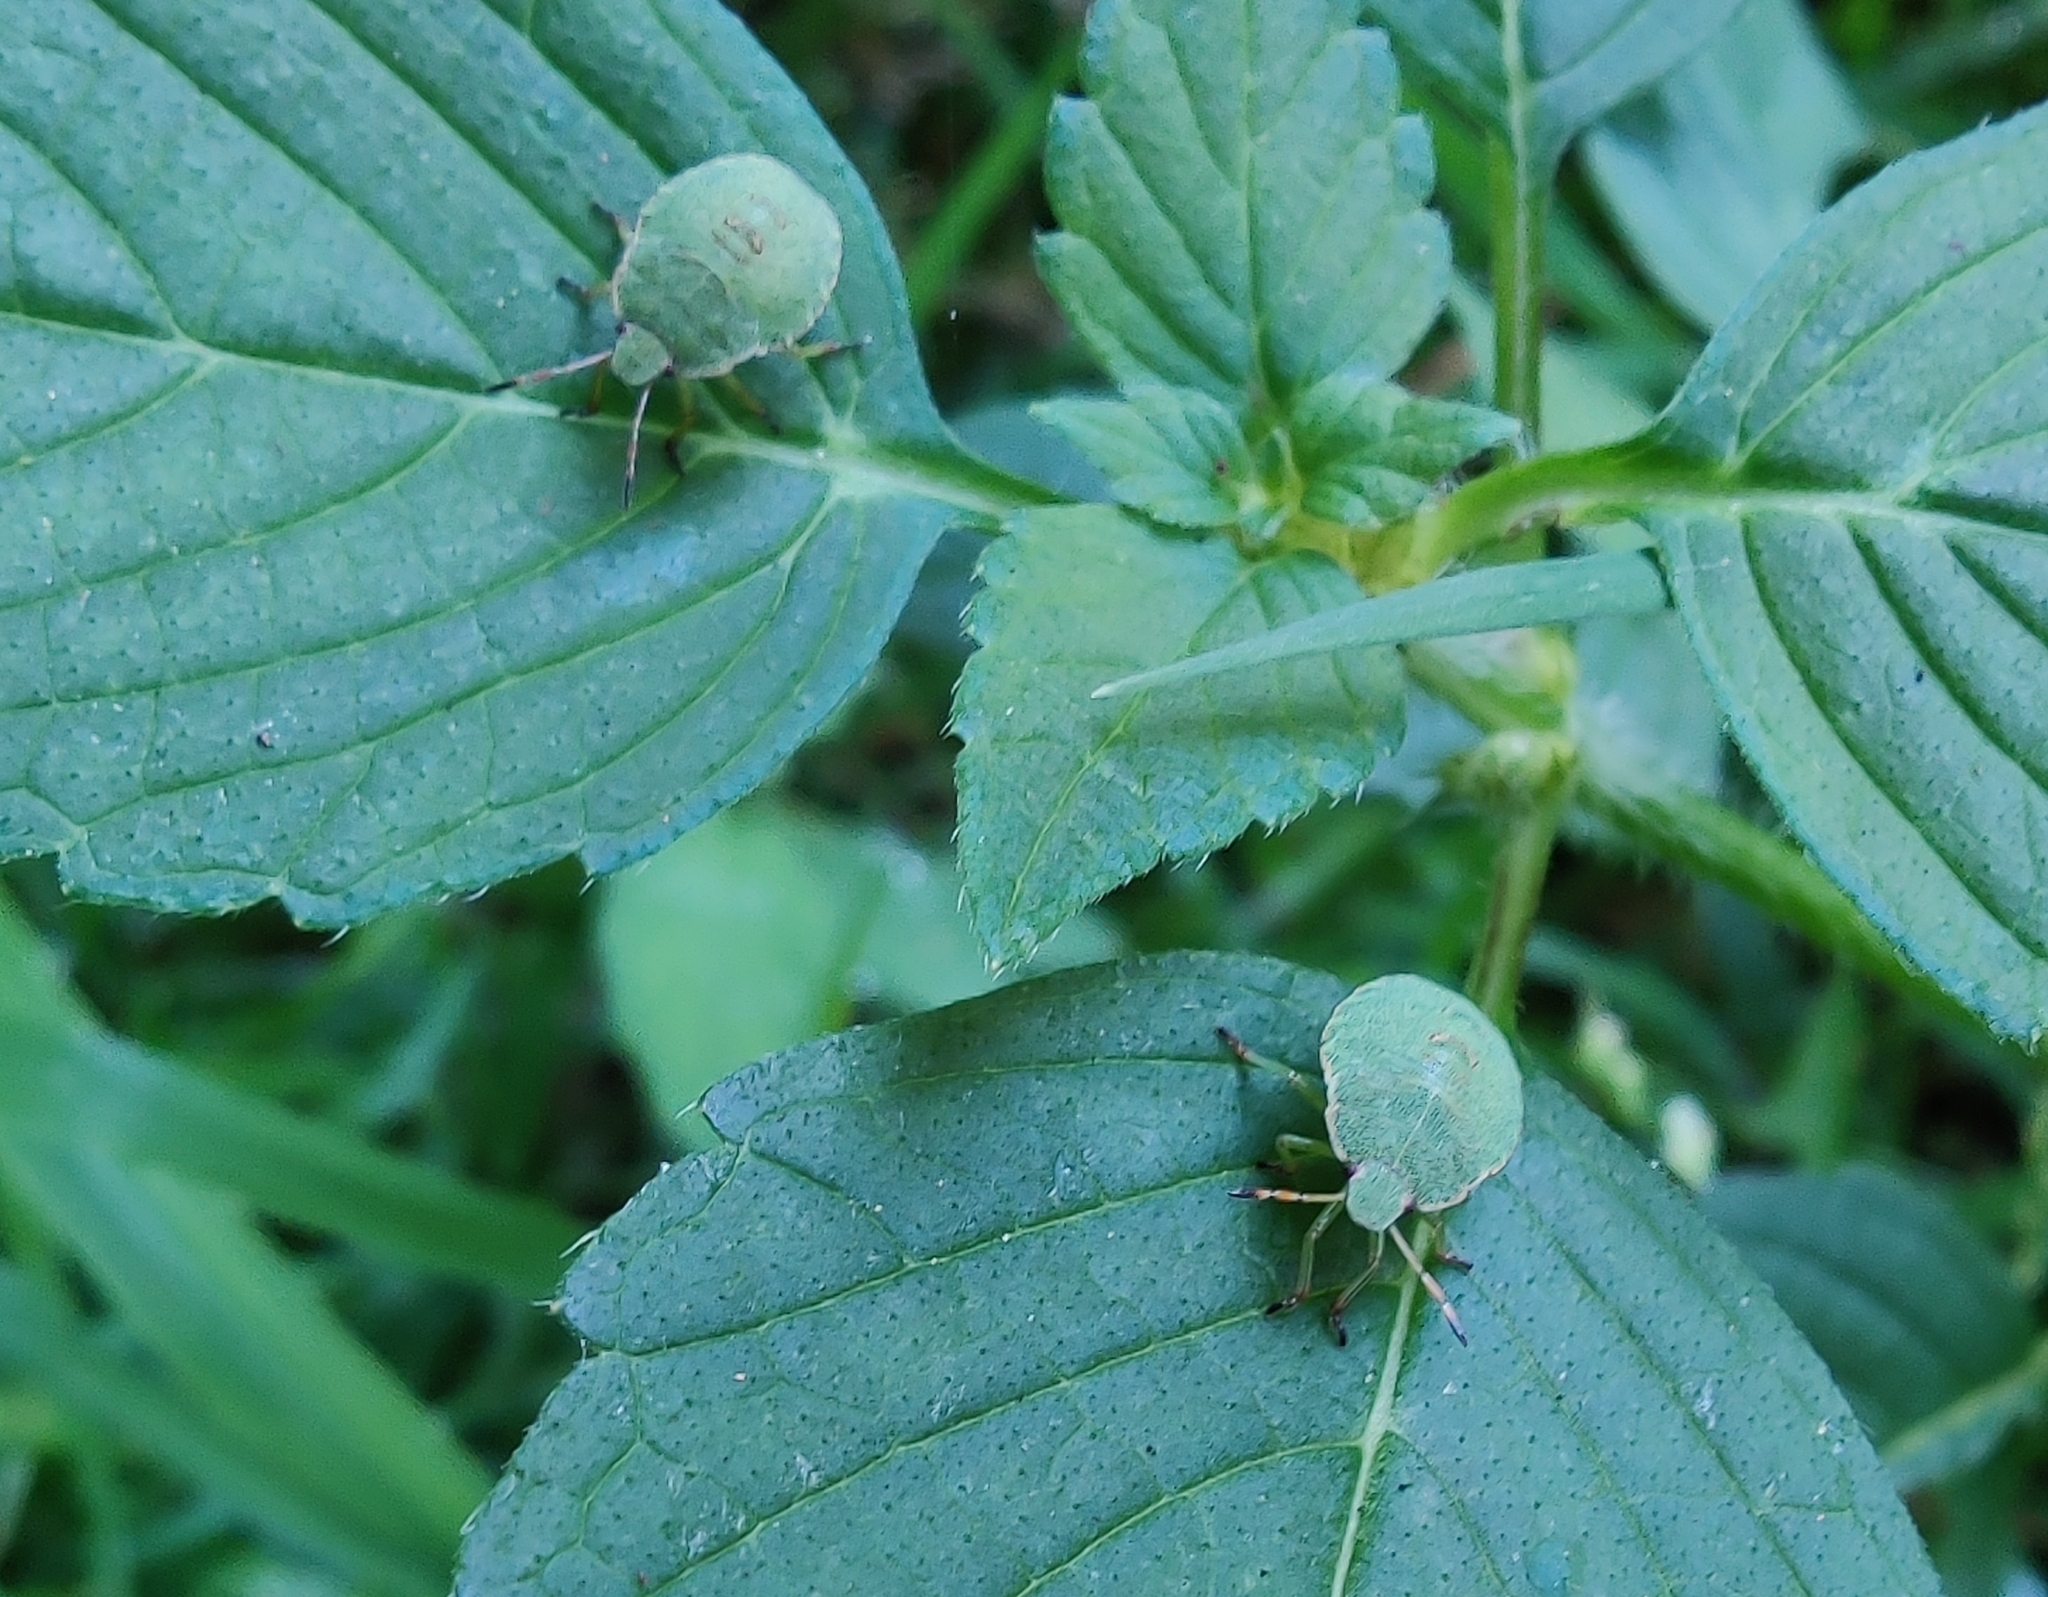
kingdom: Animalia
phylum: Arthropoda
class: Insecta
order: Hemiptera
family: Pentatomidae
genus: Palomena
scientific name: Palomena prasina
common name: Green shieldbug
